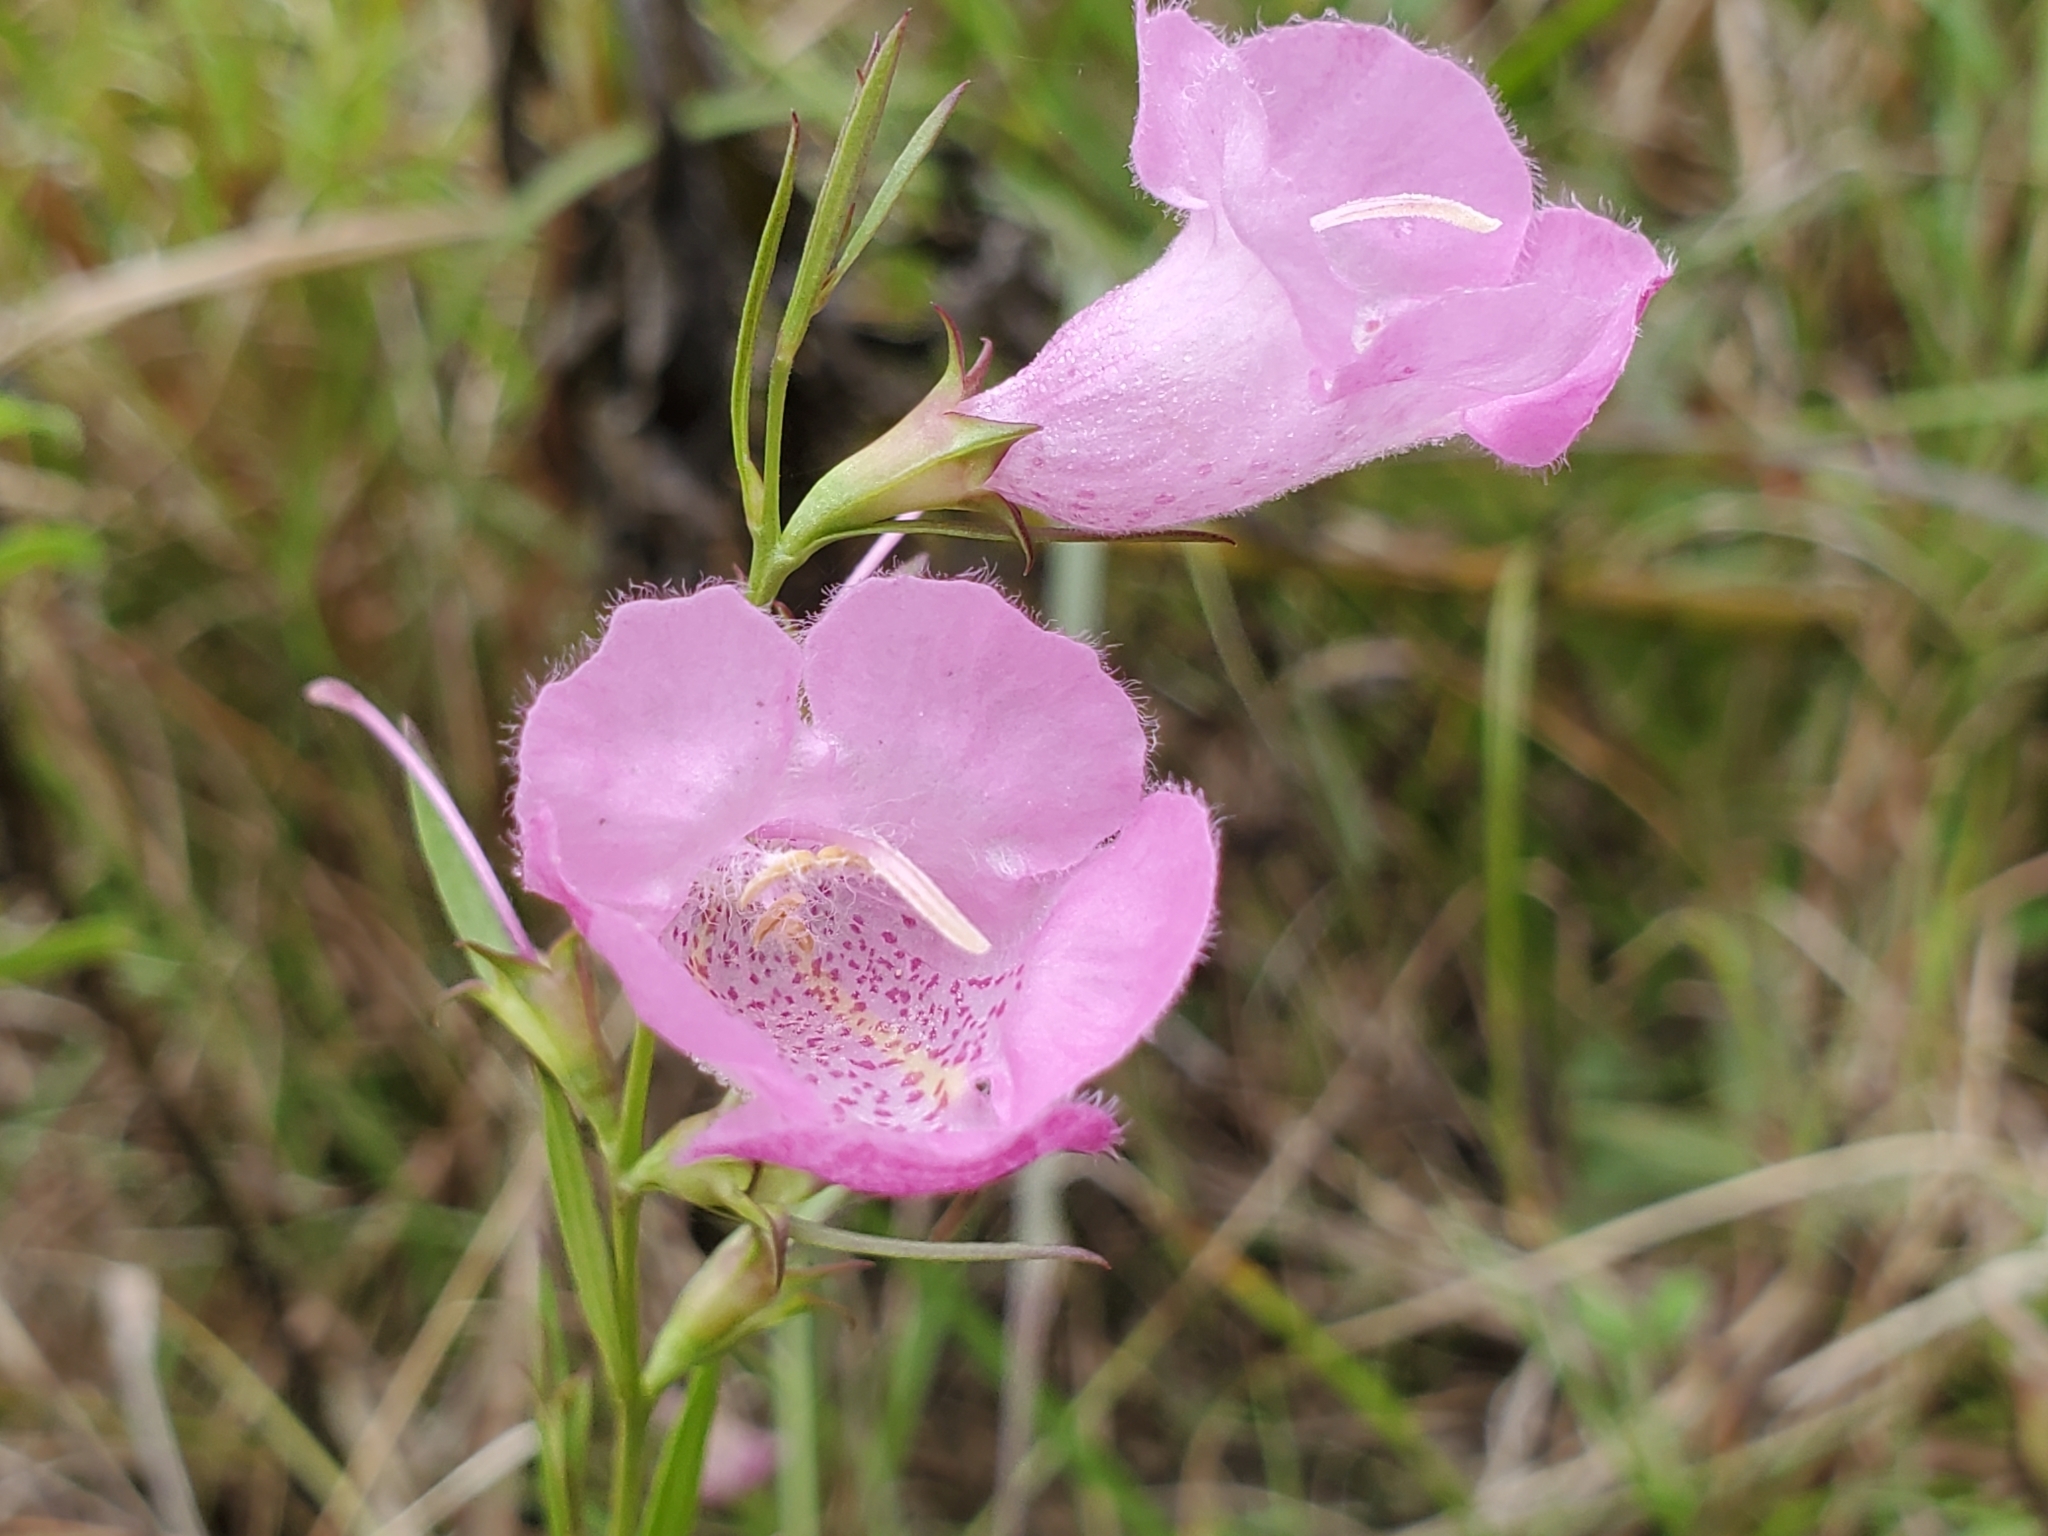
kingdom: Plantae
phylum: Tracheophyta
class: Magnoliopsida
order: Lamiales
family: Orobanchaceae
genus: Agalinis
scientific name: Agalinis heterophylla
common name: Prairie agalinis
